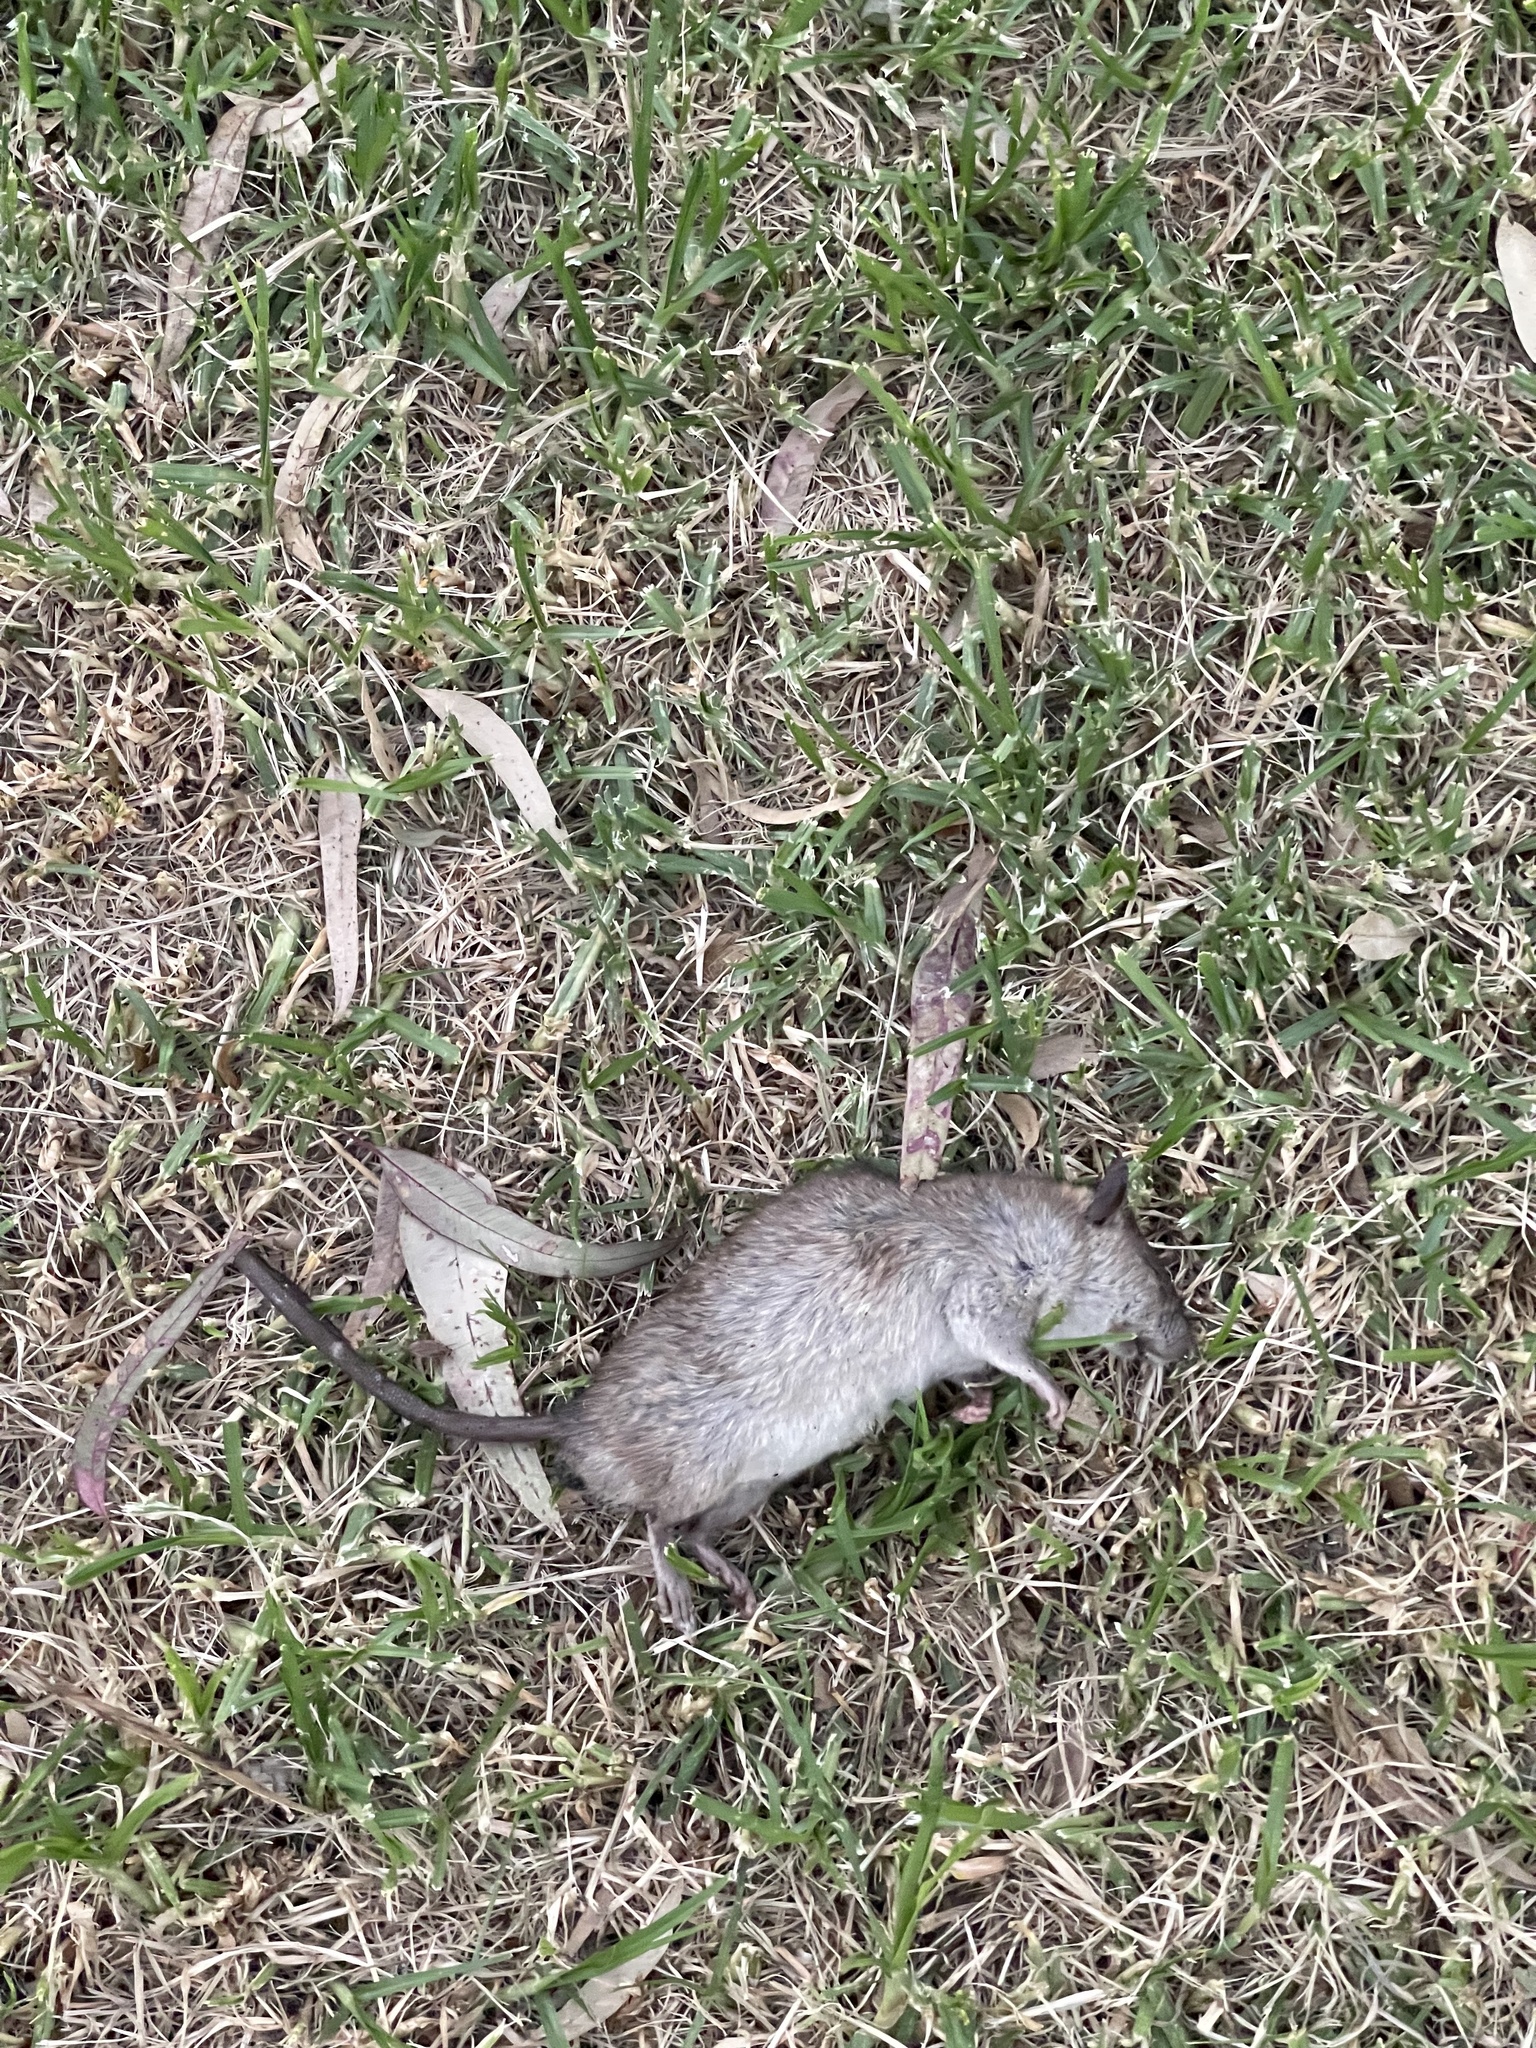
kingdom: Animalia
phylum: Chordata
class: Mammalia
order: Rodentia
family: Muridae
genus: Rattus
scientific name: Rattus rattus
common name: Black rat
